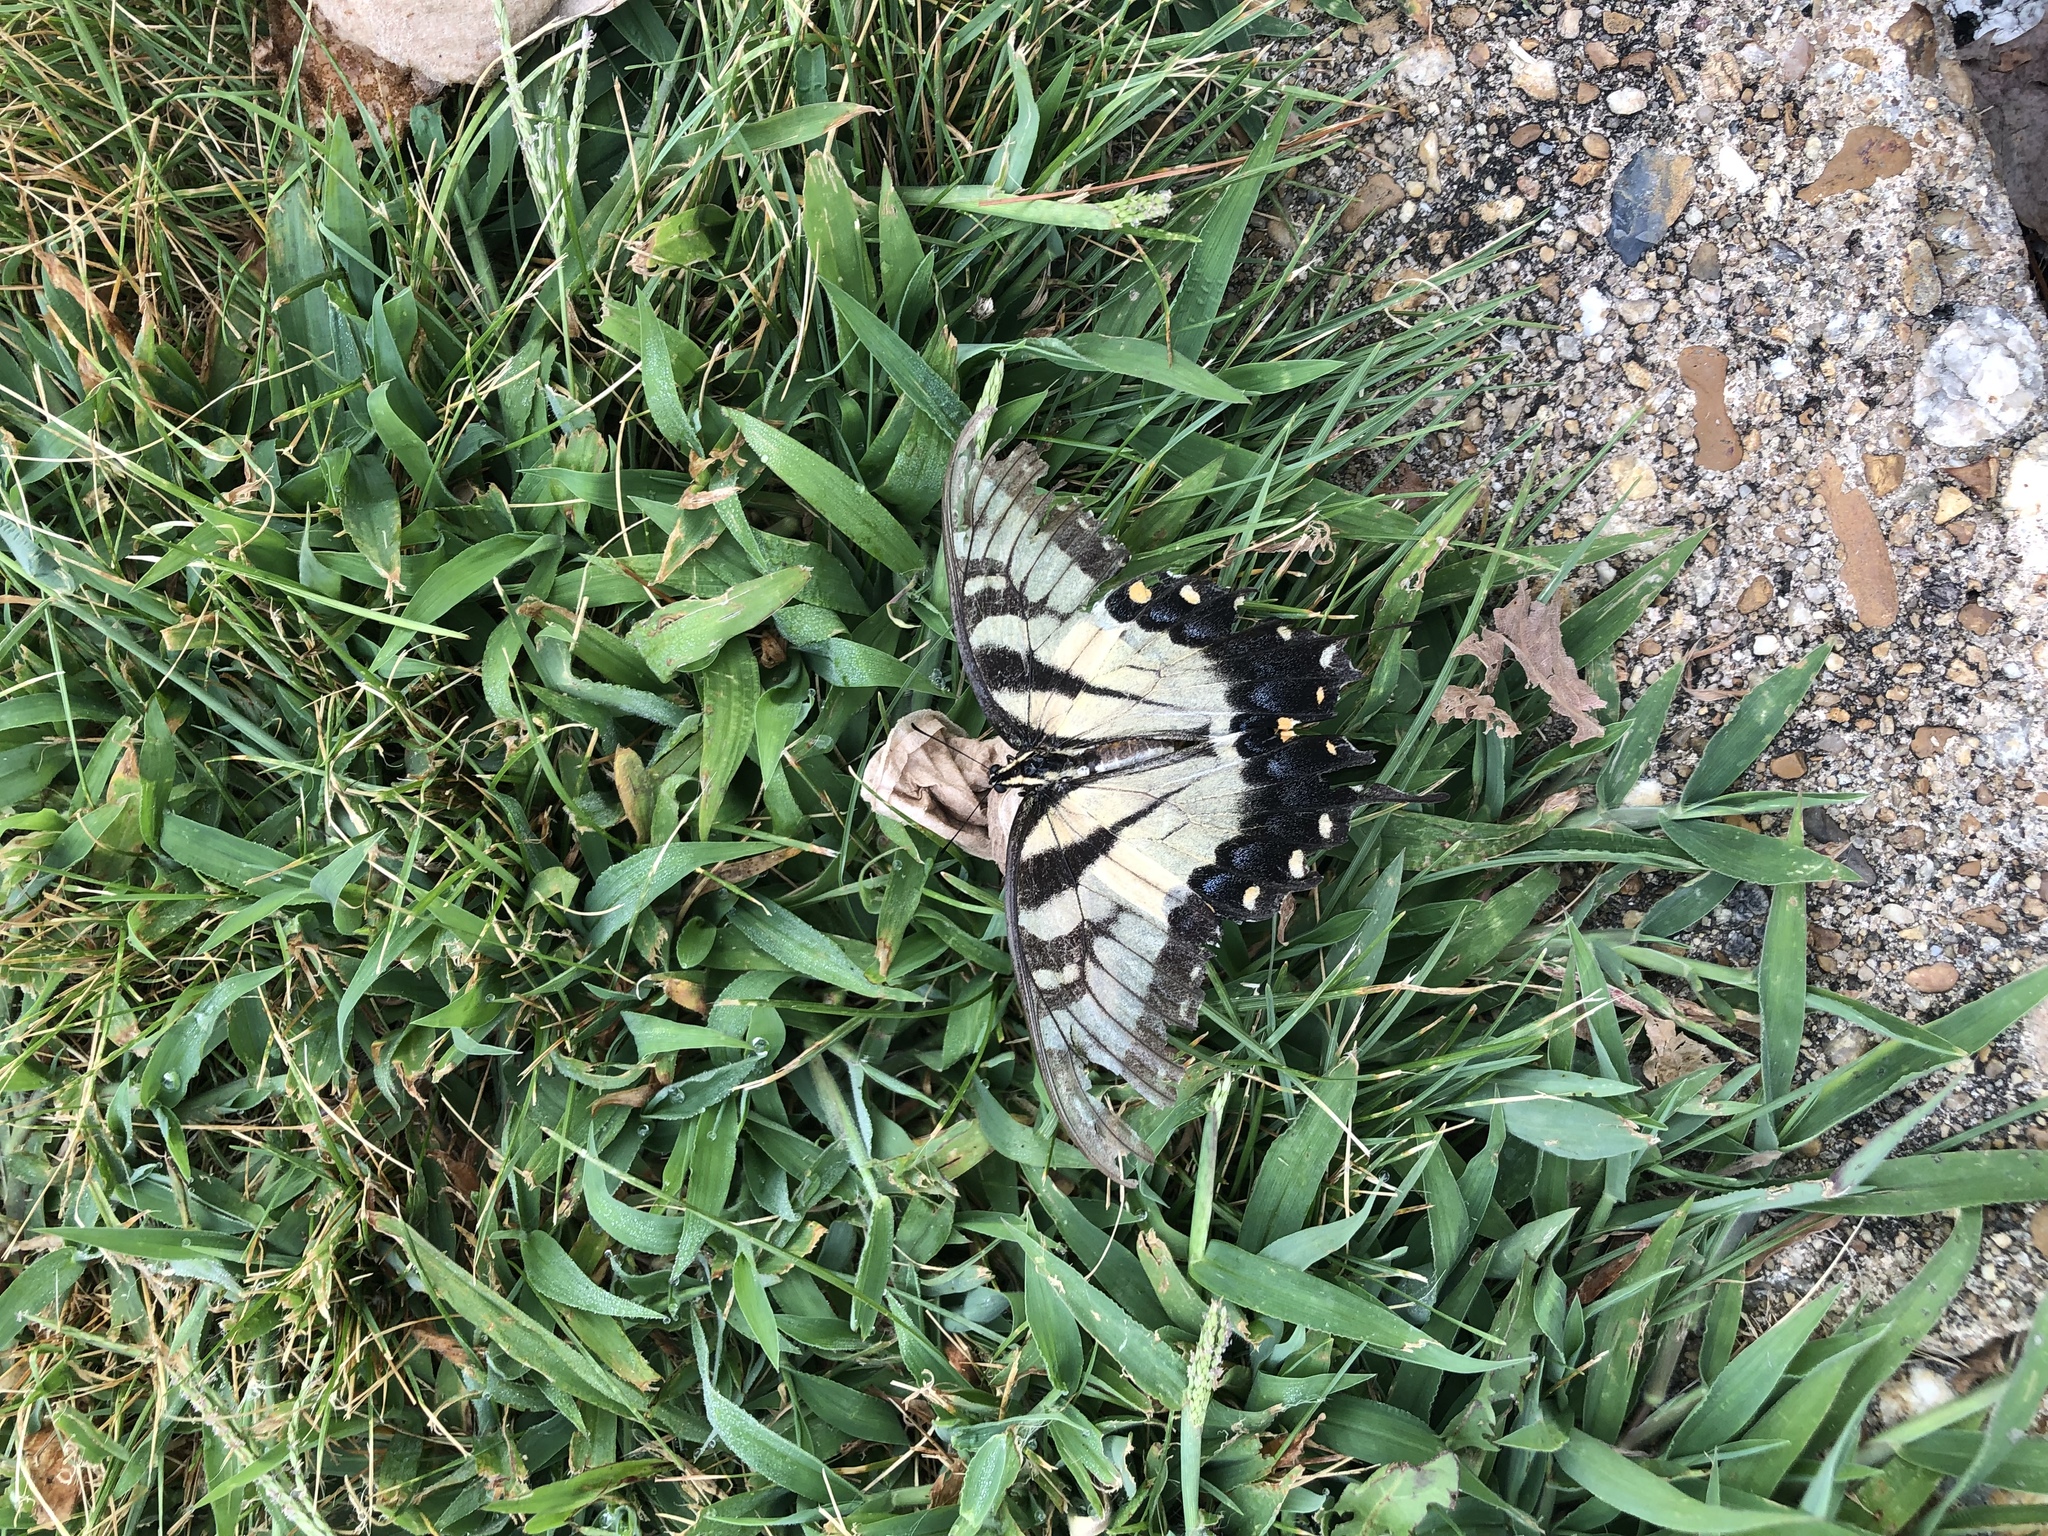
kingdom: Animalia
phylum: Arthropoda
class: Insecta
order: Lepidoptera
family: Papilionidae
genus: Papilio
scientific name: Papilio glaucus
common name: Tiger swallowtail
